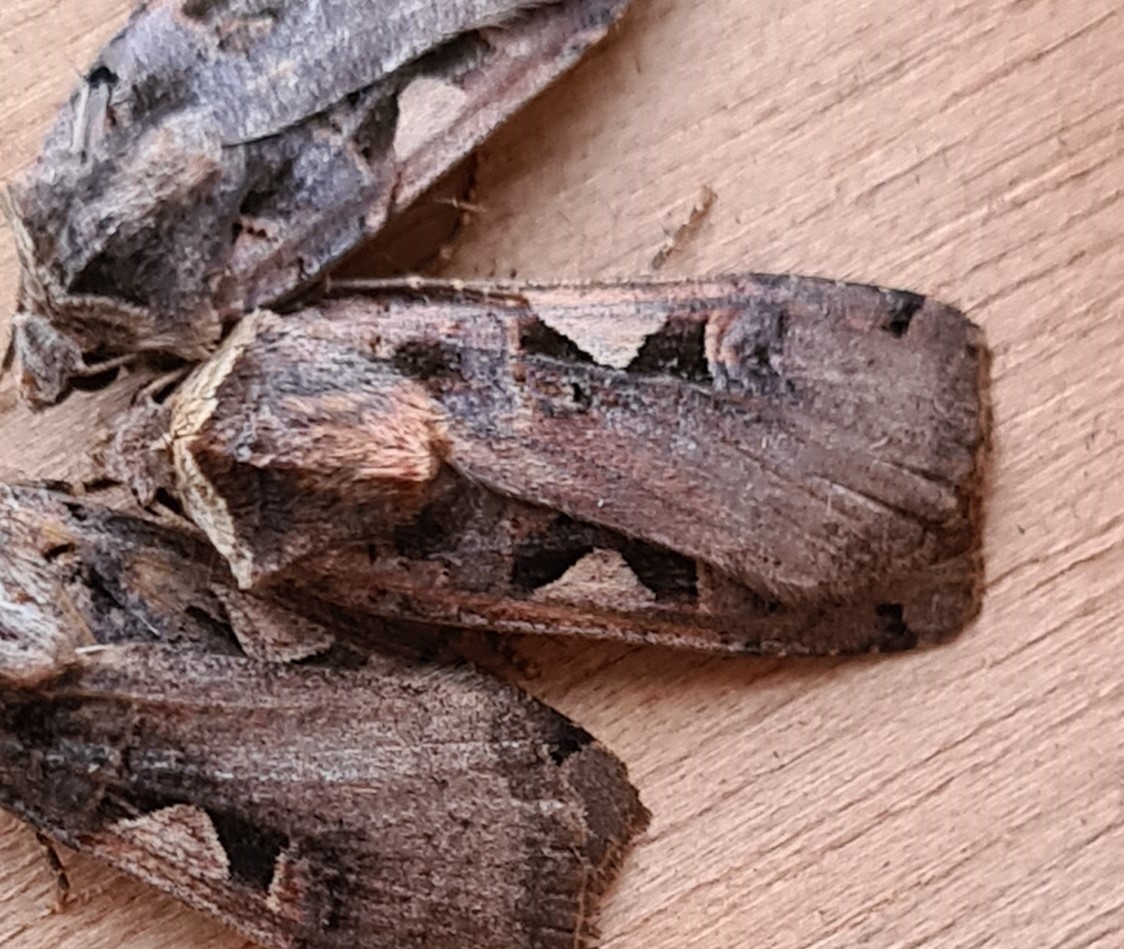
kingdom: Animalia
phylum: Arthropoda
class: Insecta
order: Lepidoptera
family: Noctuidae
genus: Xestia
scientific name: Xestia c-nigrum
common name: Setaceous hebrew character
